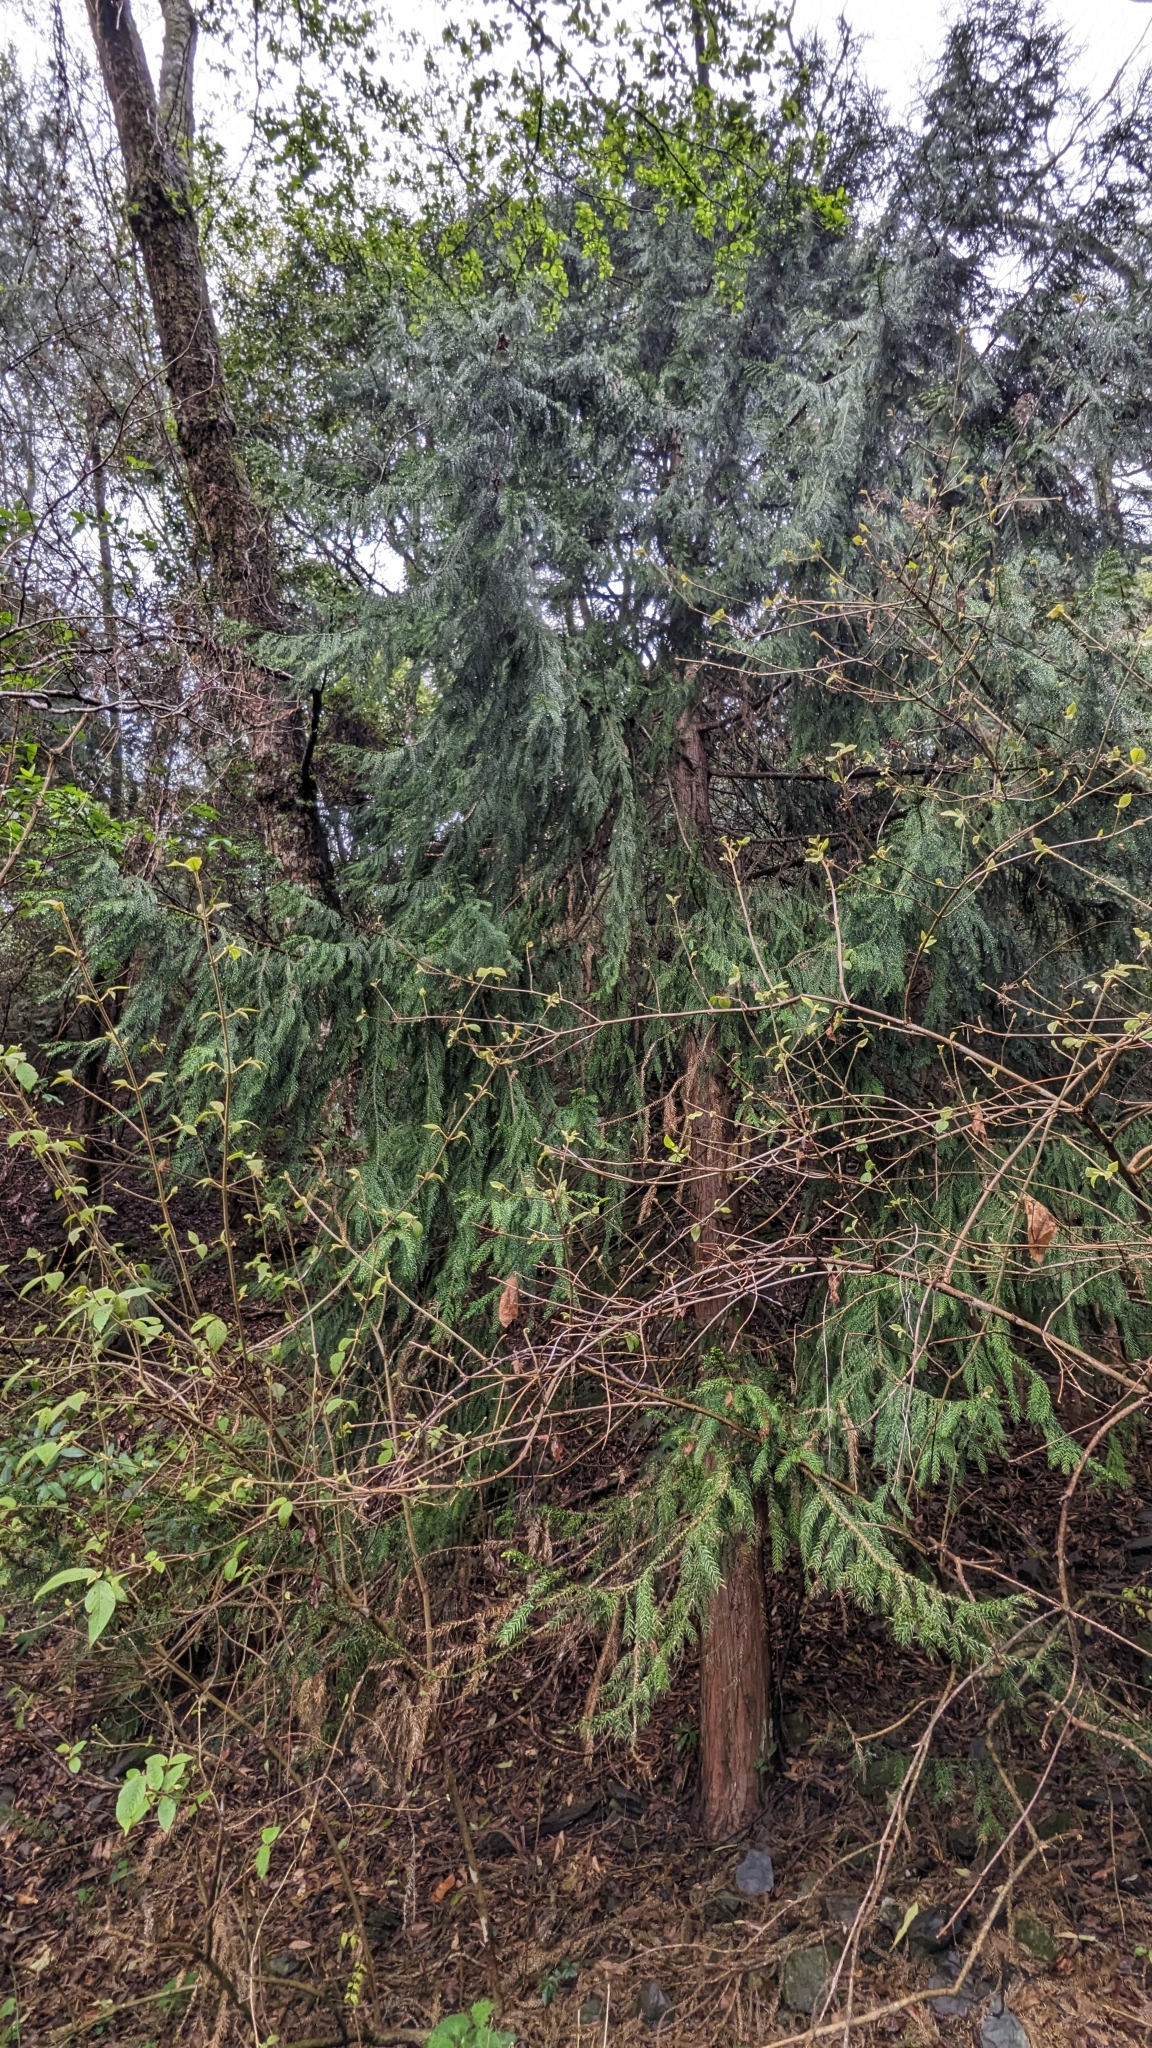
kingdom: Plantae
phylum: Tracheophyta
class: Pinopsida
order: Pinales
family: Cupressaceae
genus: Taiwania
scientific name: Taiwania cryptomerioides
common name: Coffin tree
